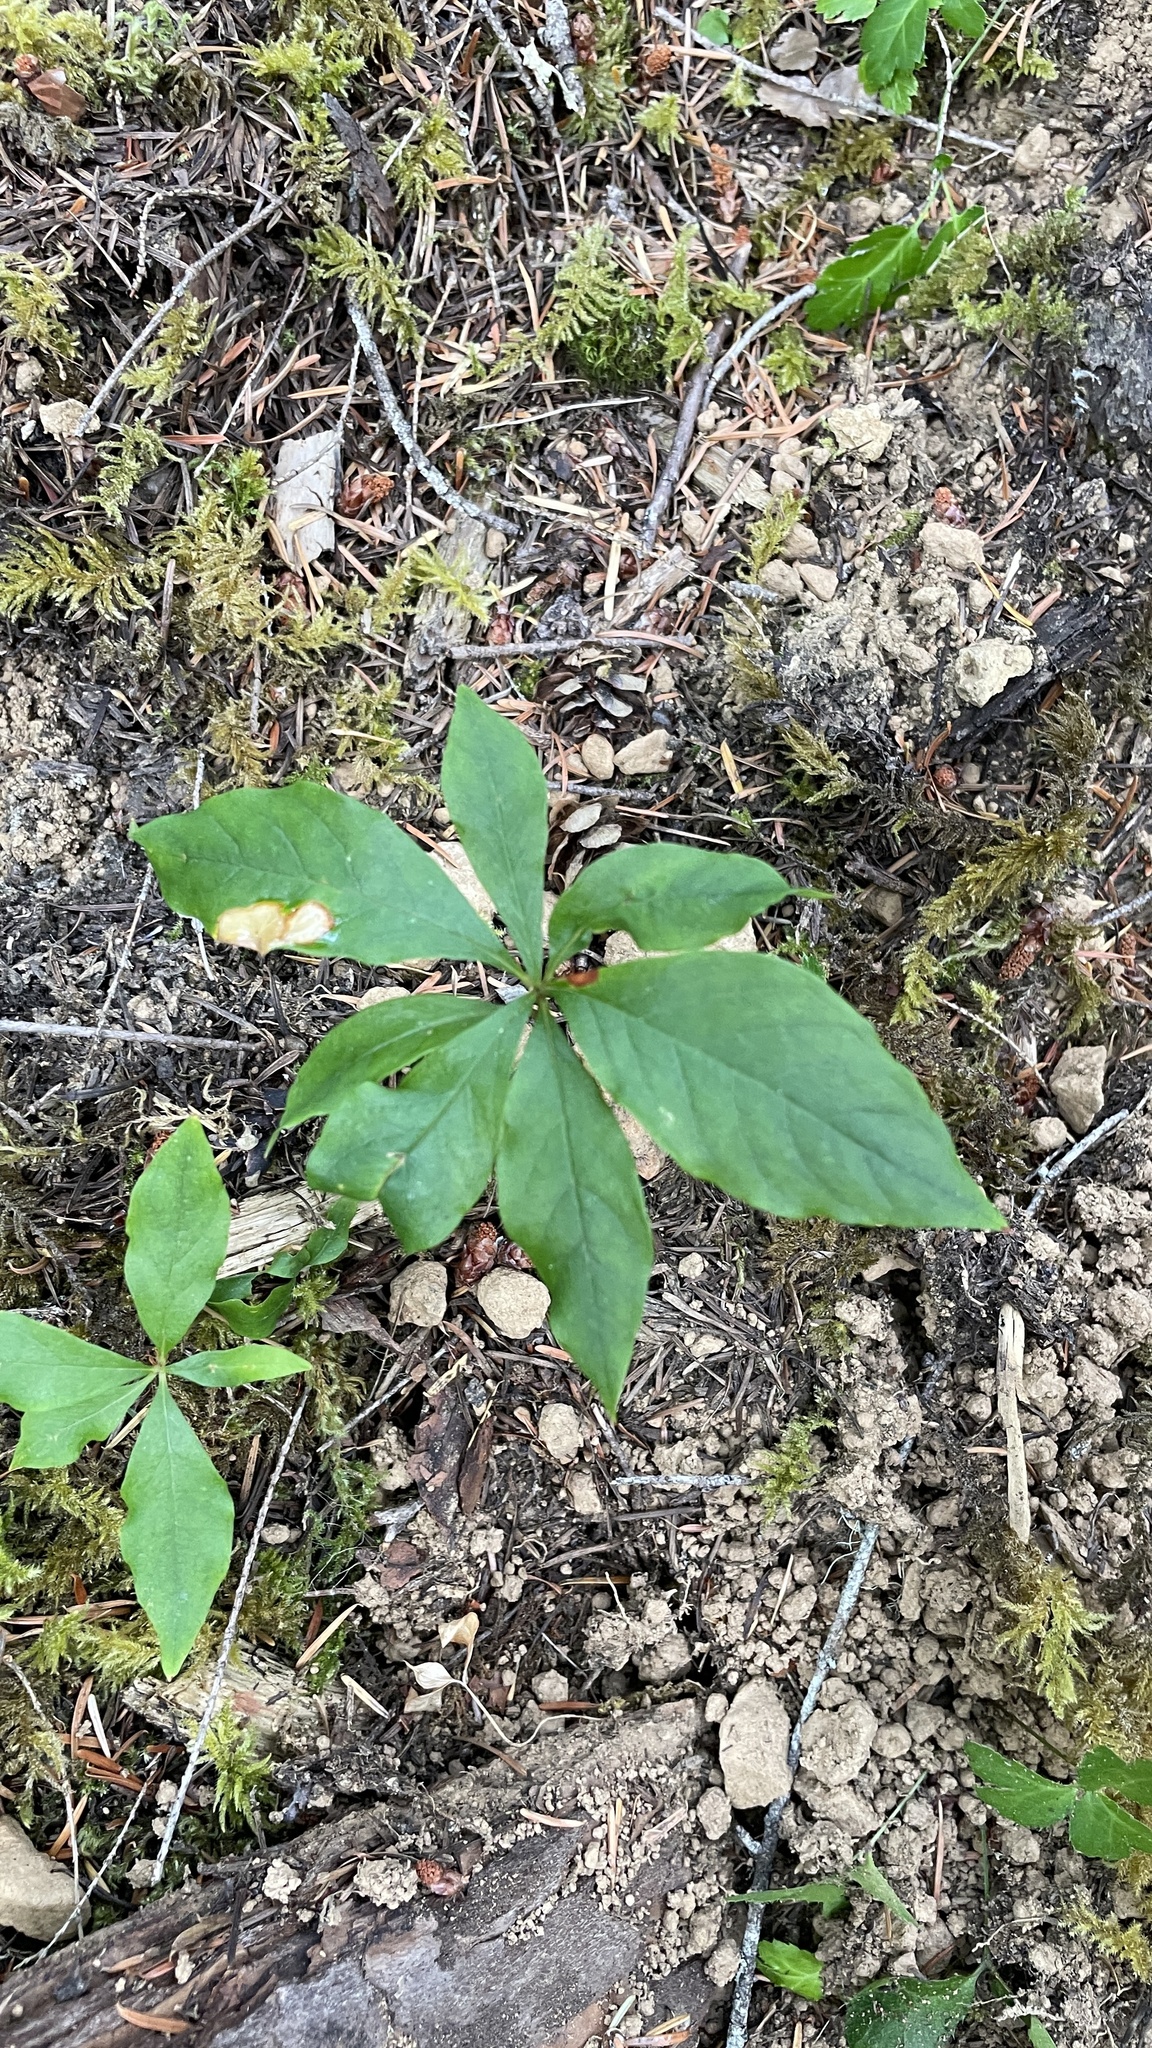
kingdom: Plantae
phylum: Tracheophyta
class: Magnoliopsida
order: Ericales
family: Primulaceae
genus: Lysimachia
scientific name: Lysimachia latifolia
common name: Pacific starflower
